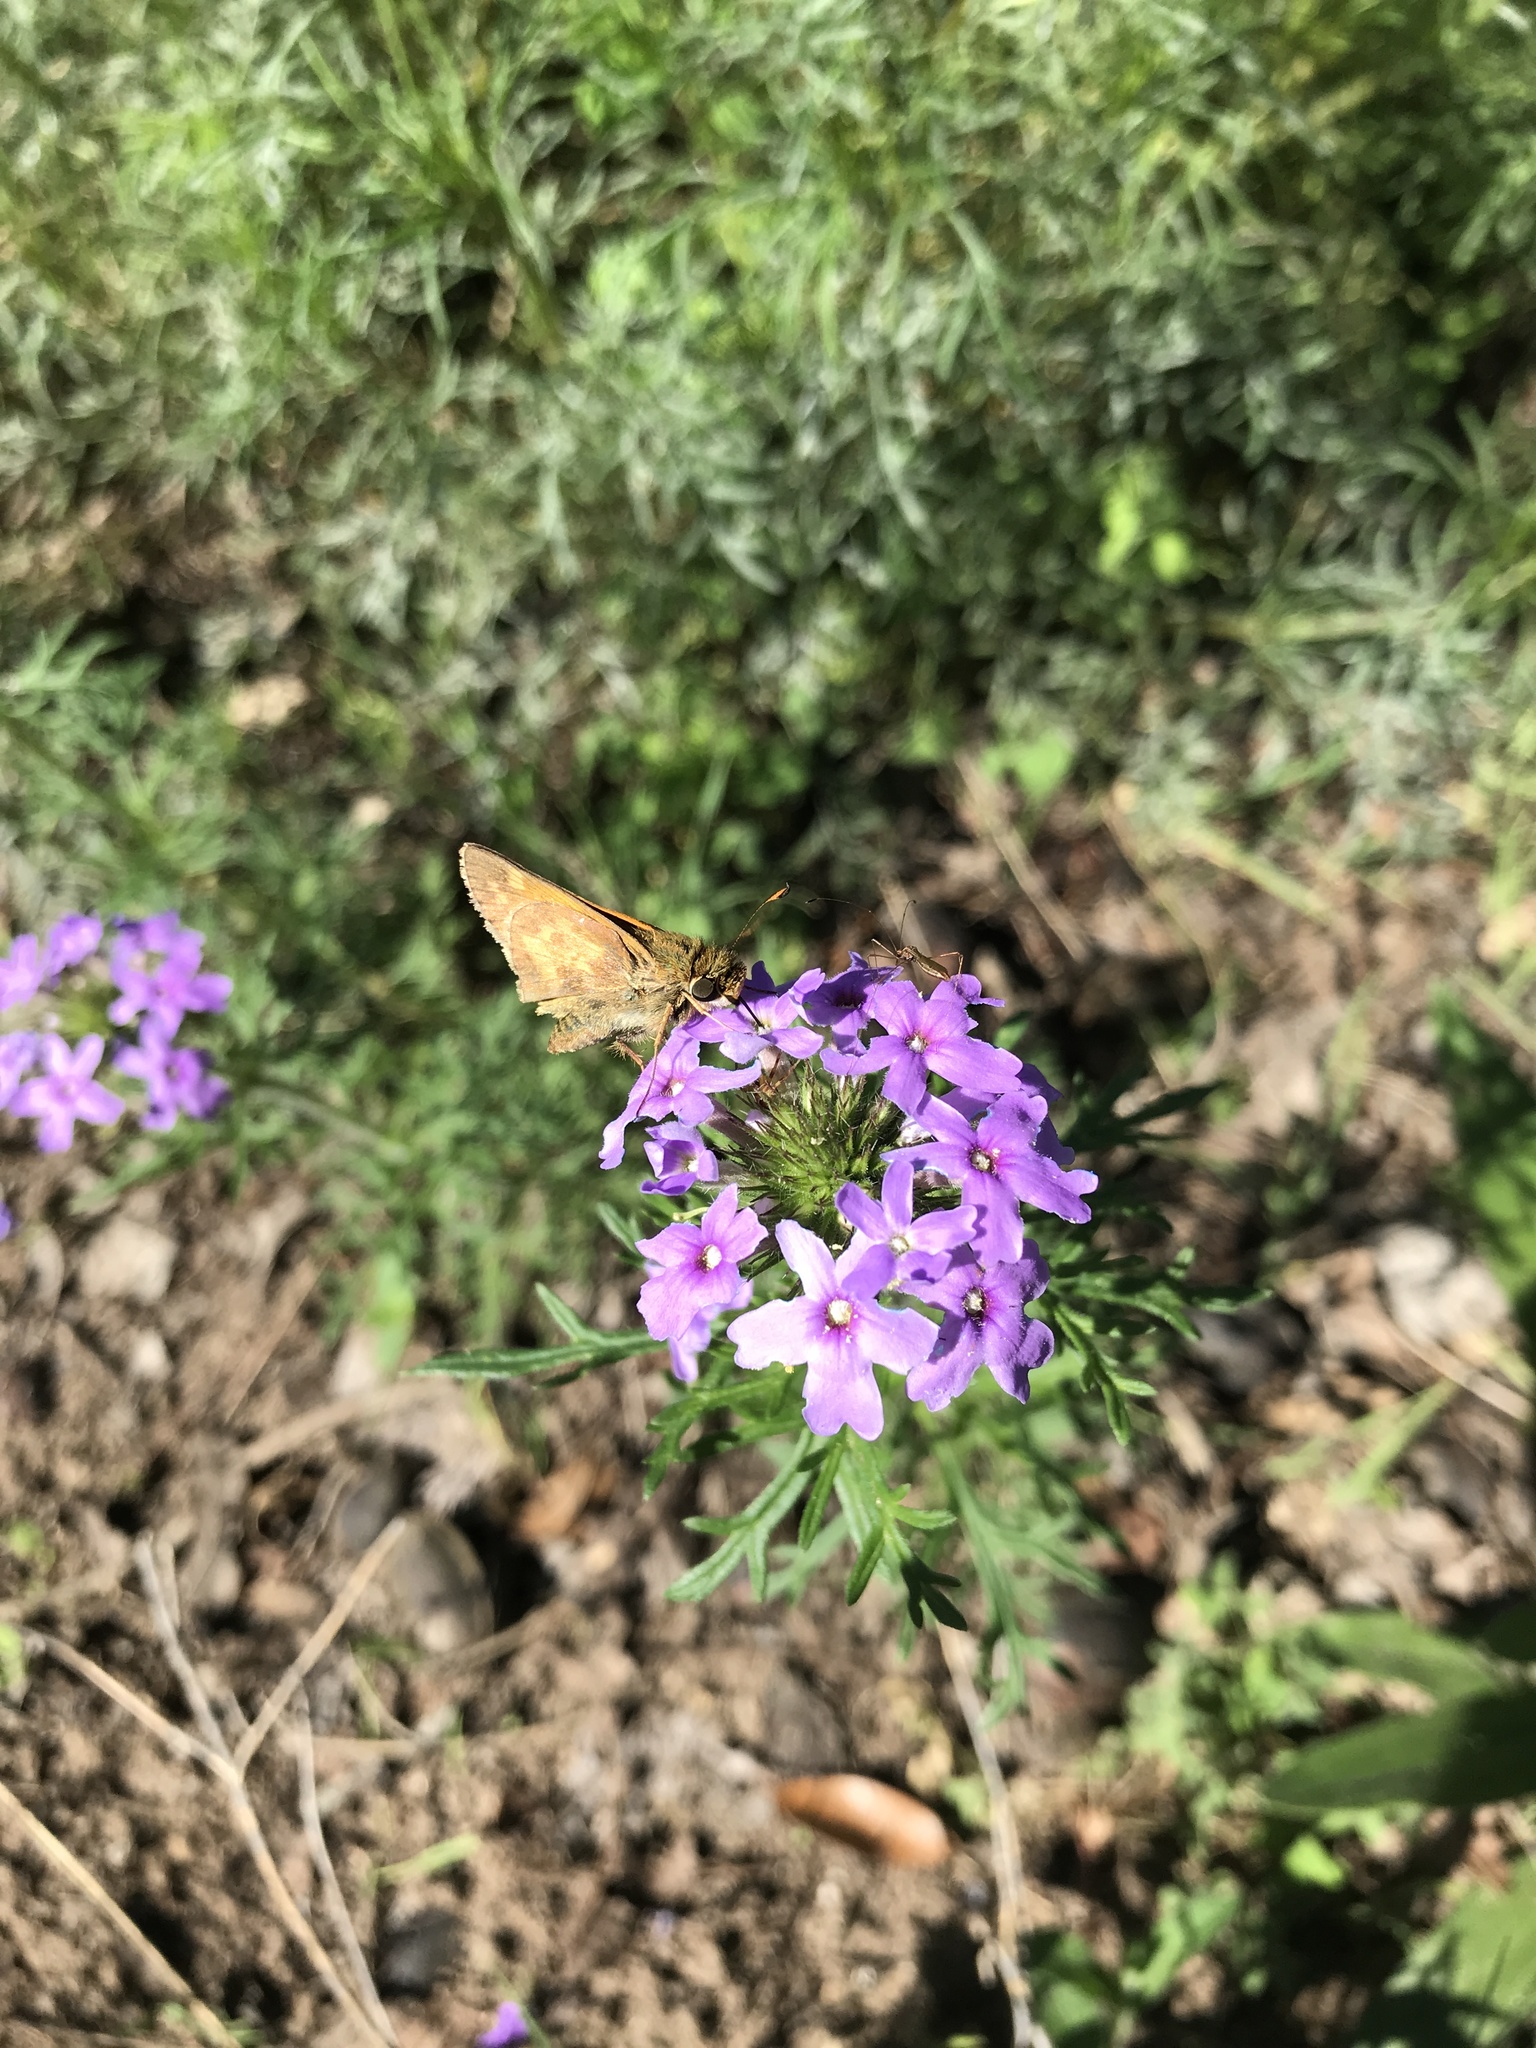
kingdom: Animalia
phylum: Arthropoda
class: Insecta
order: Lepidoptera
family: Hesperiidae
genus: Atalopedes
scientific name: Atalopedes
